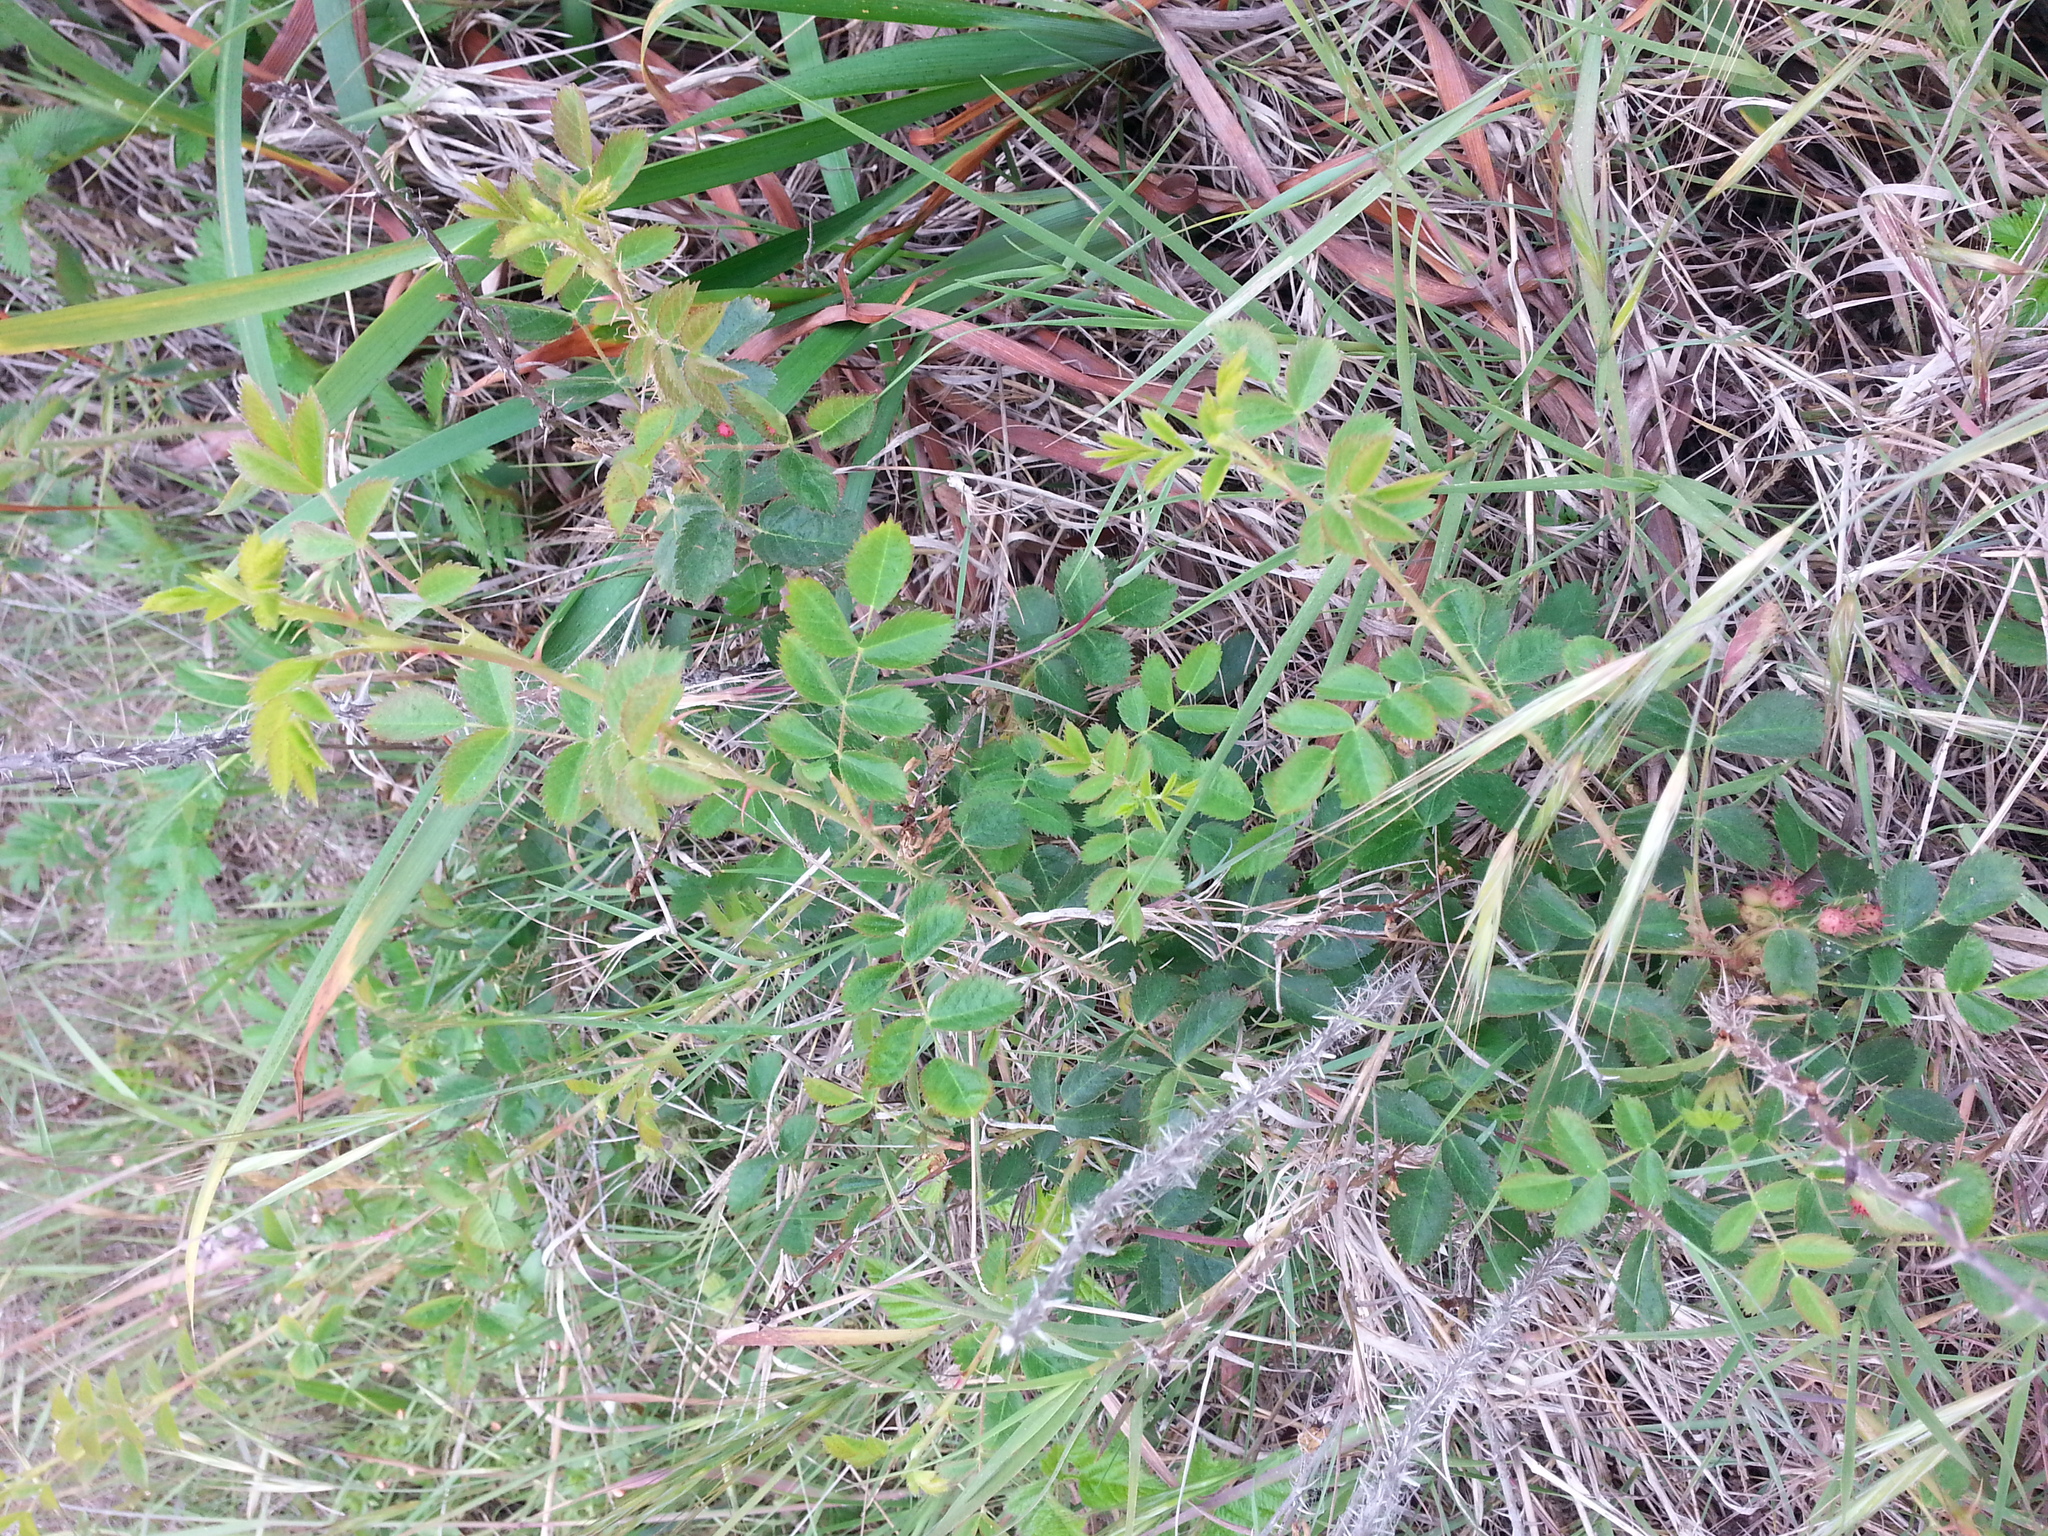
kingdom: Plantae
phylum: Tracheophyta
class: Magnoliopsida
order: Rosales
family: Rosaceae
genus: Rosa
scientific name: Rosa californica
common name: California rose
